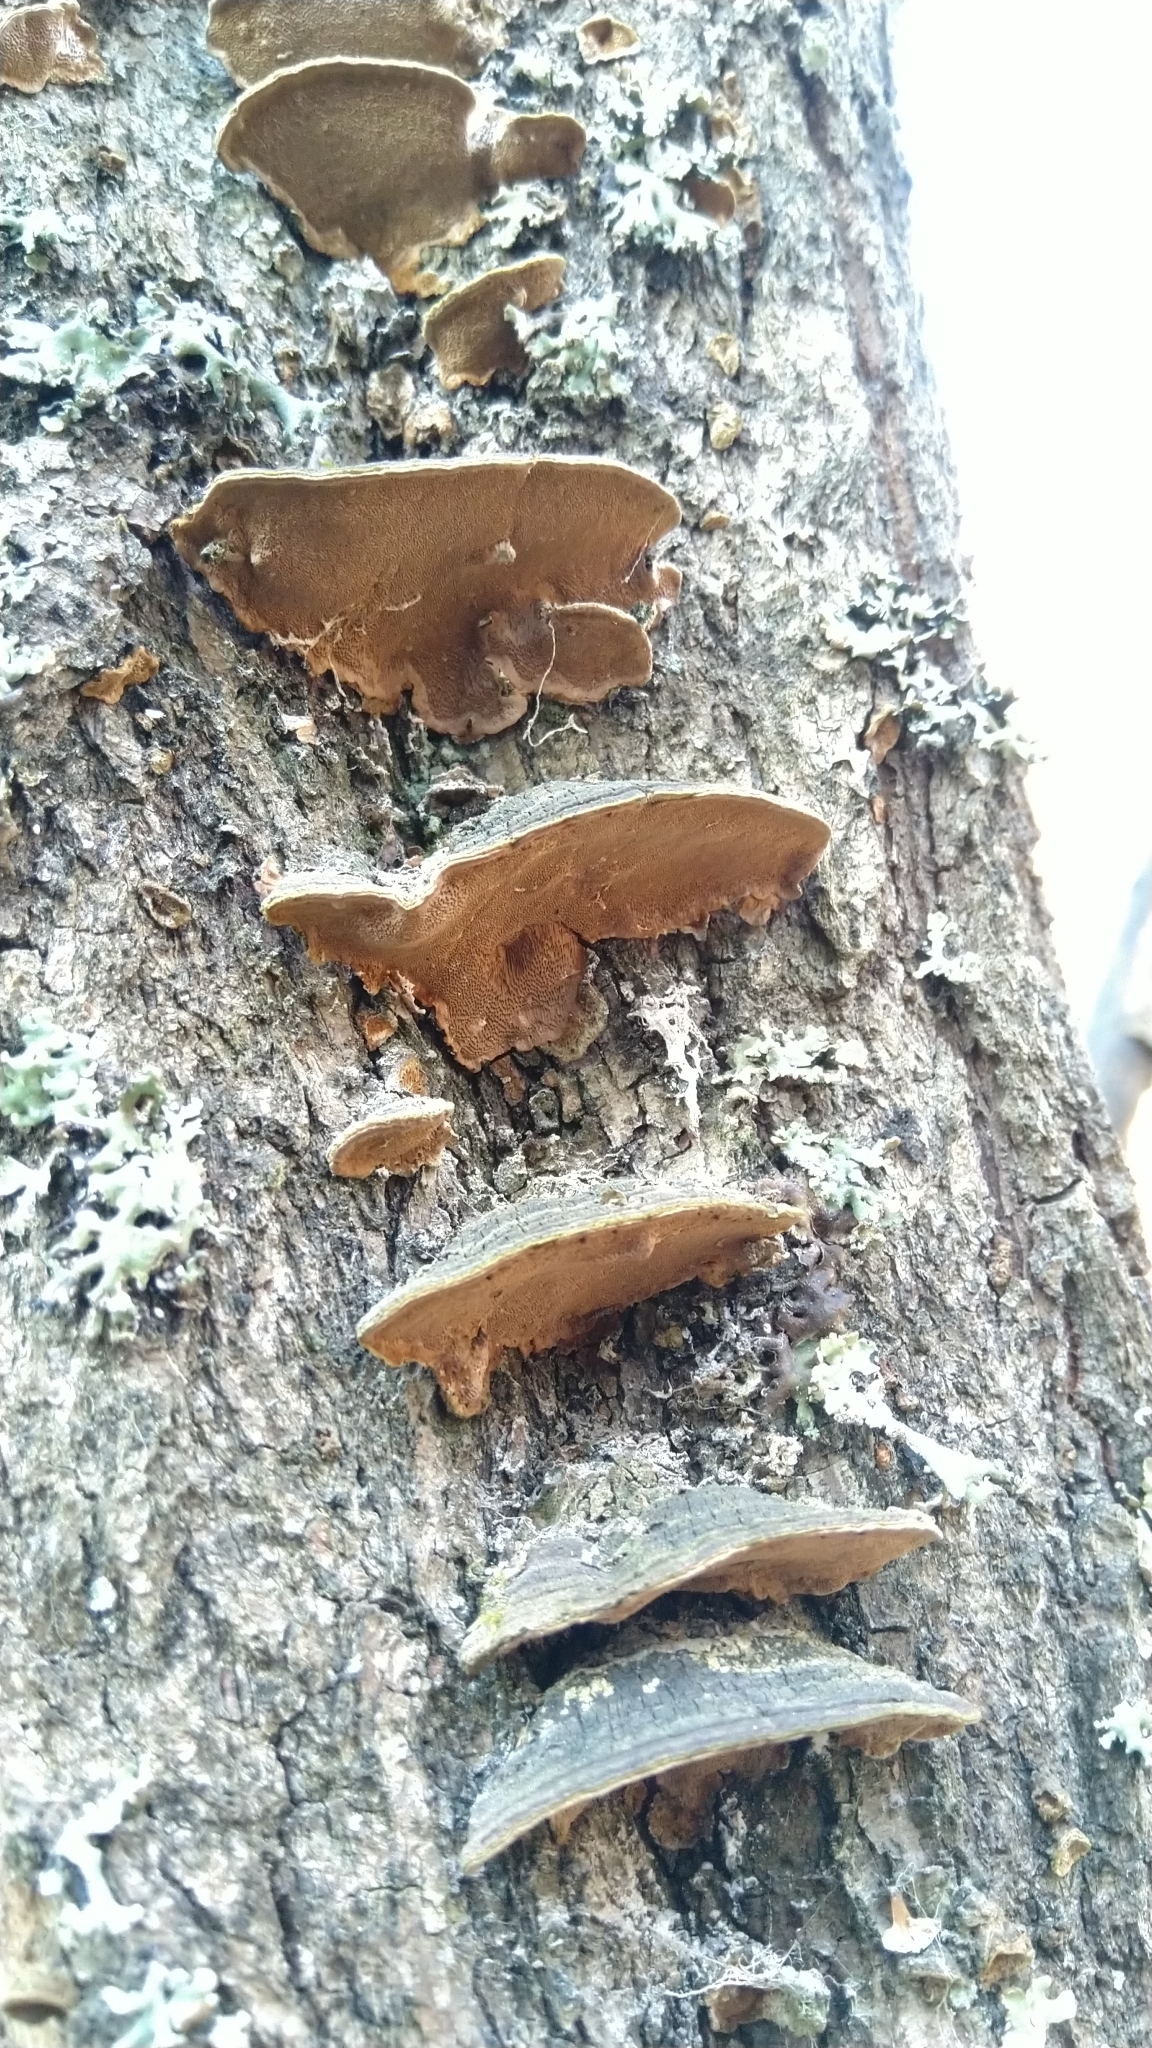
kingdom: Fungi
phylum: Basidiomycota
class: Agaricomycetes
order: Hymenochaetales
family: Hymenochaetaceae
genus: Phellinopsis
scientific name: Phellinopsis conchata
